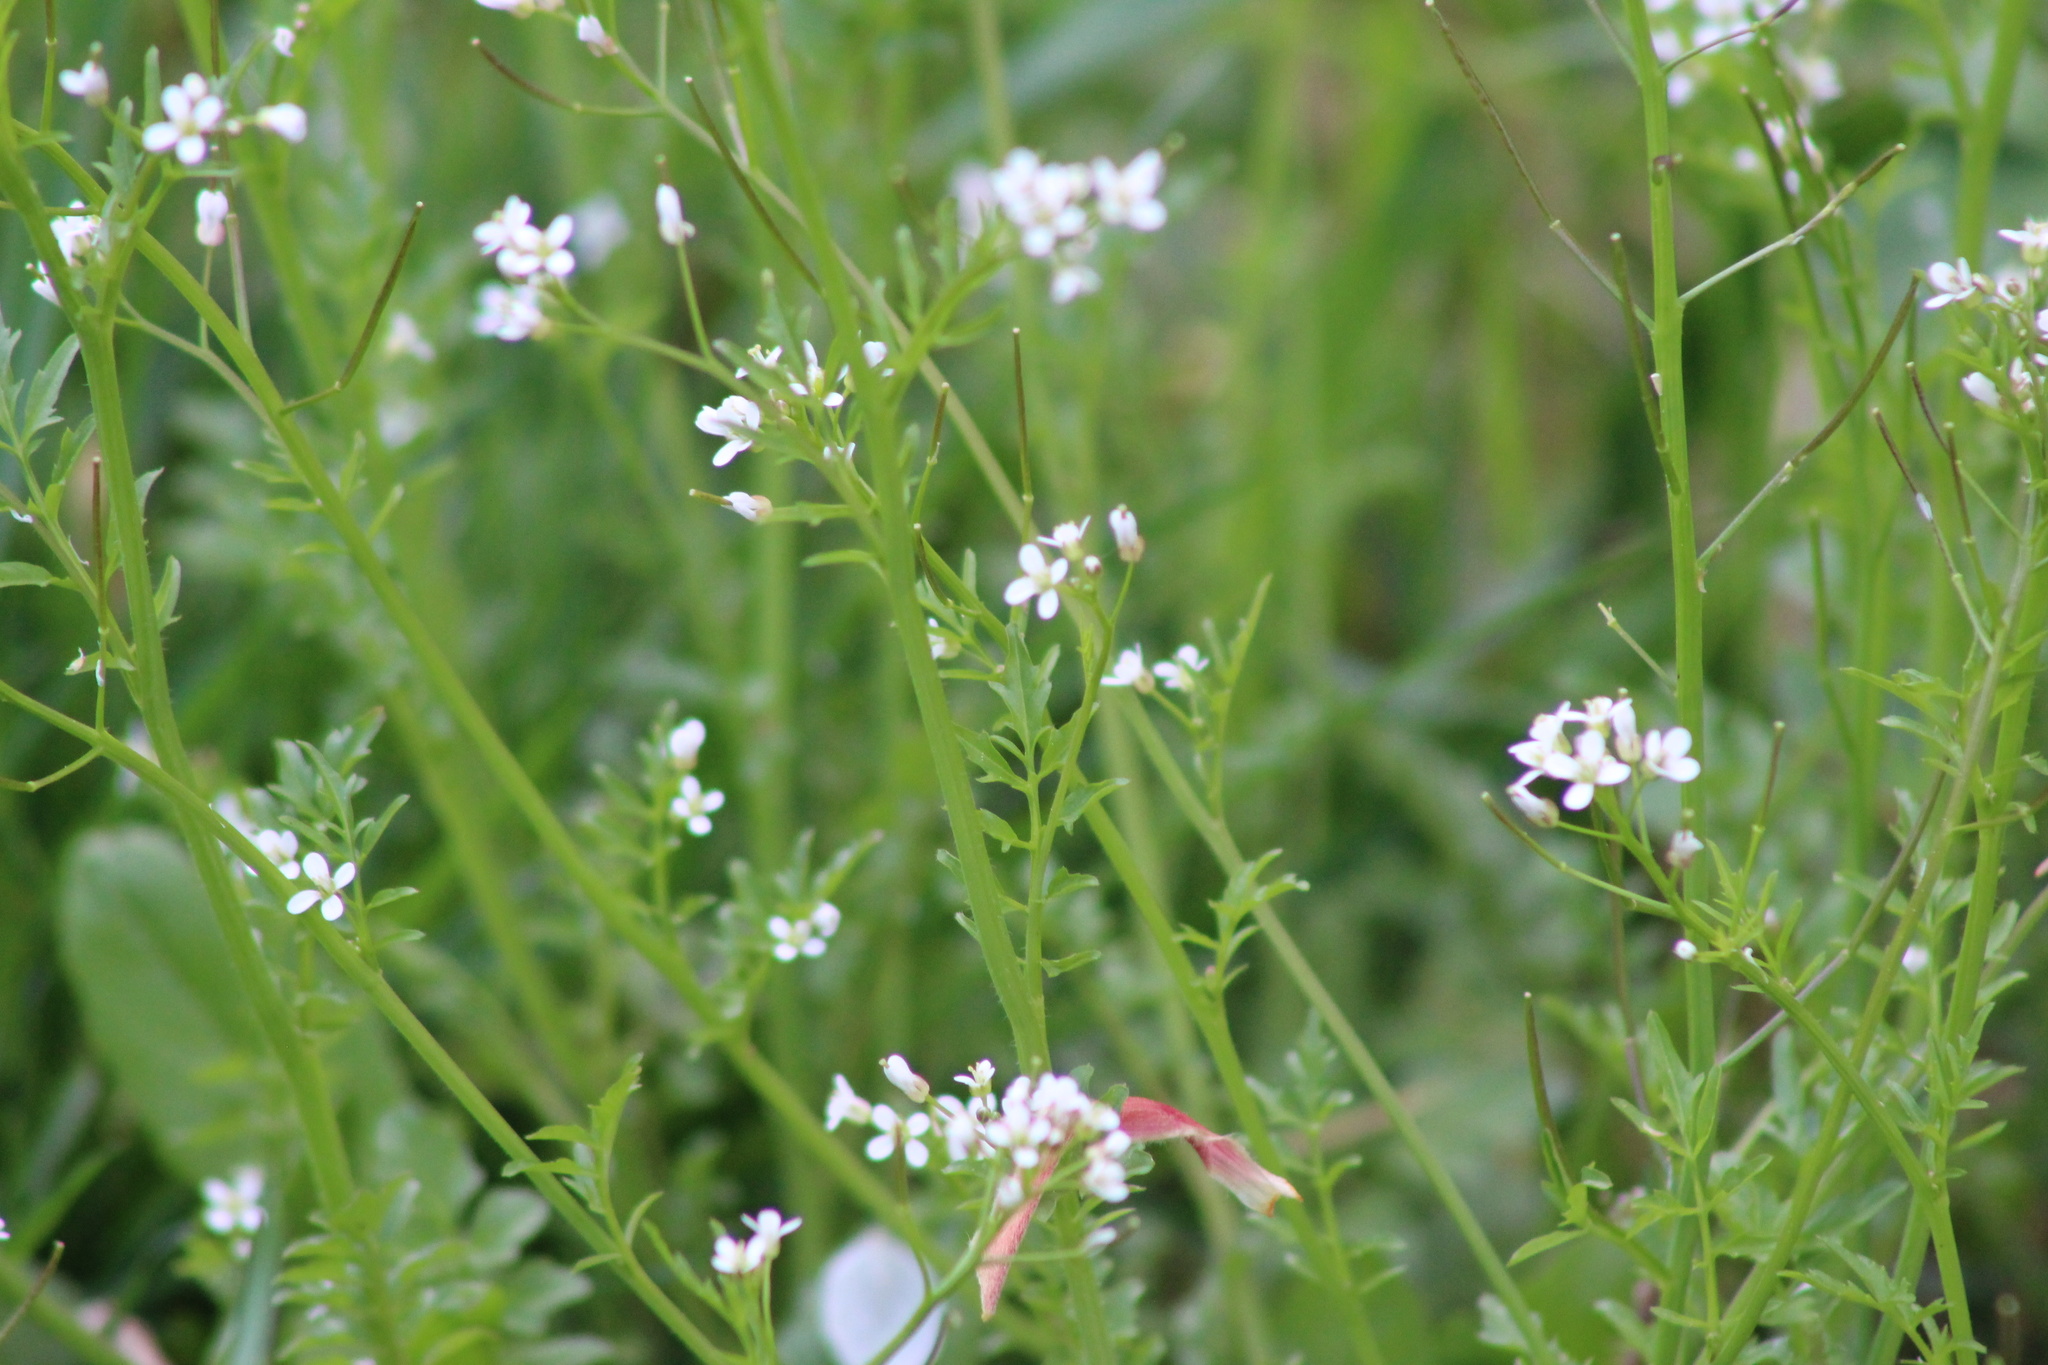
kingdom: Plantae
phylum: Tracheophyta
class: Magnoliopsida
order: Brassicales
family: Brassicaceae
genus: Cardamine
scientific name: Cardamine flexuosa
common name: Woodland bittercress
